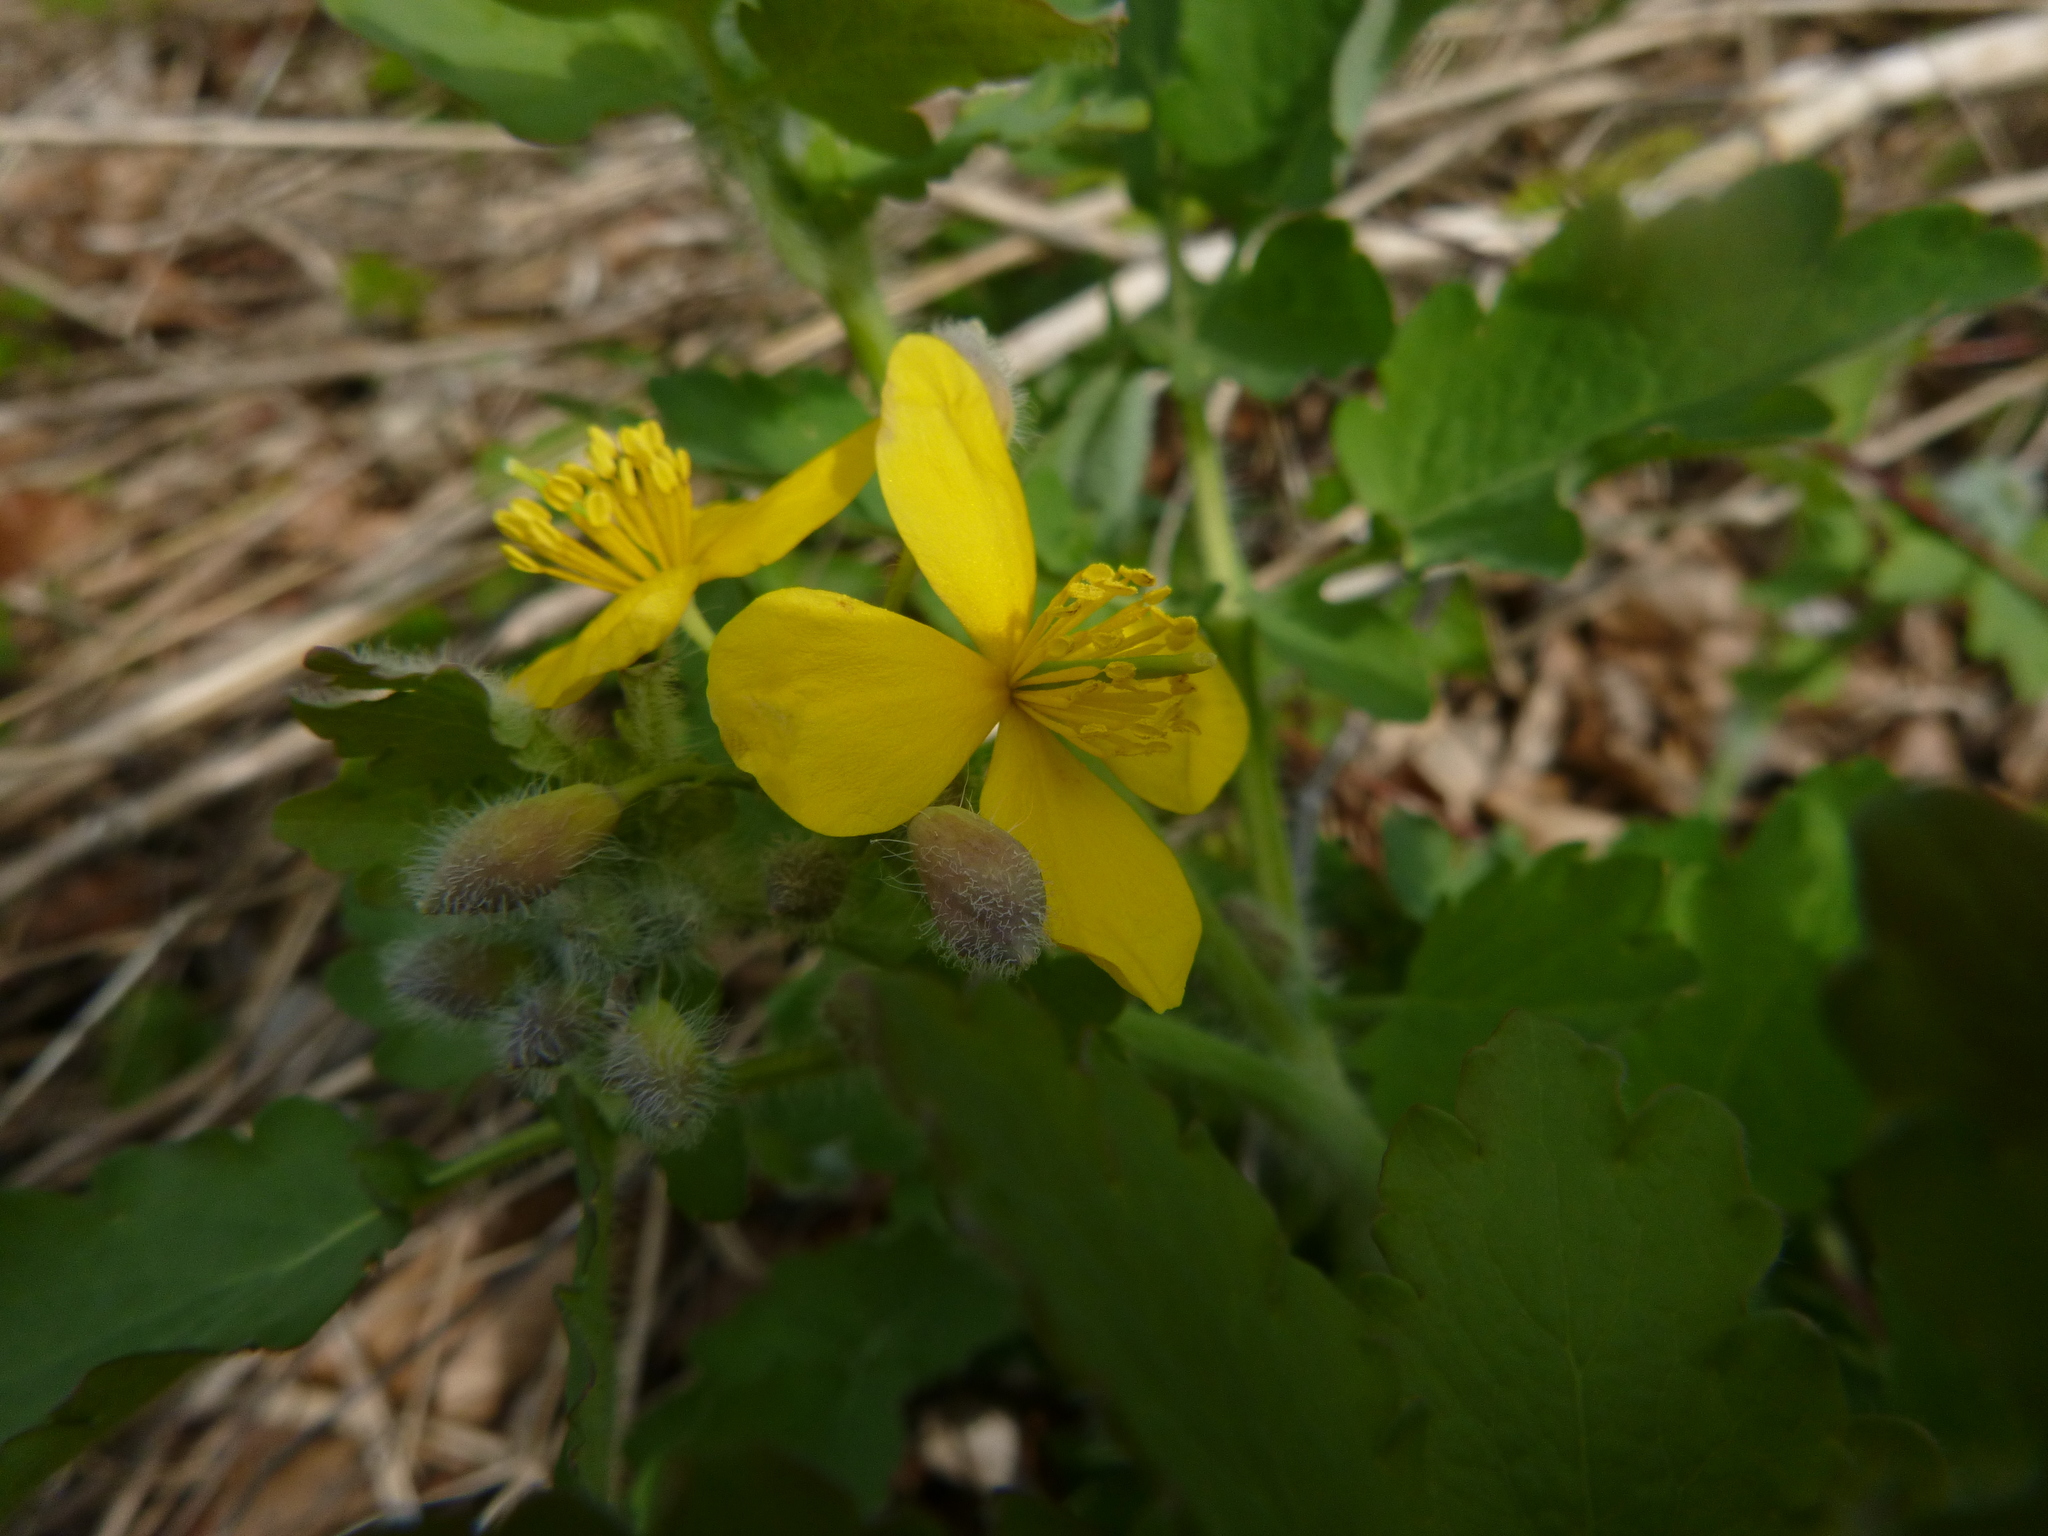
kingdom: Plantae
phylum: Tracheophyta
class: Magnoliopsida
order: Ranunculales
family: Papaveraceae
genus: Chelidonium
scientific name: Chelidonium majus
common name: Greater celandine
